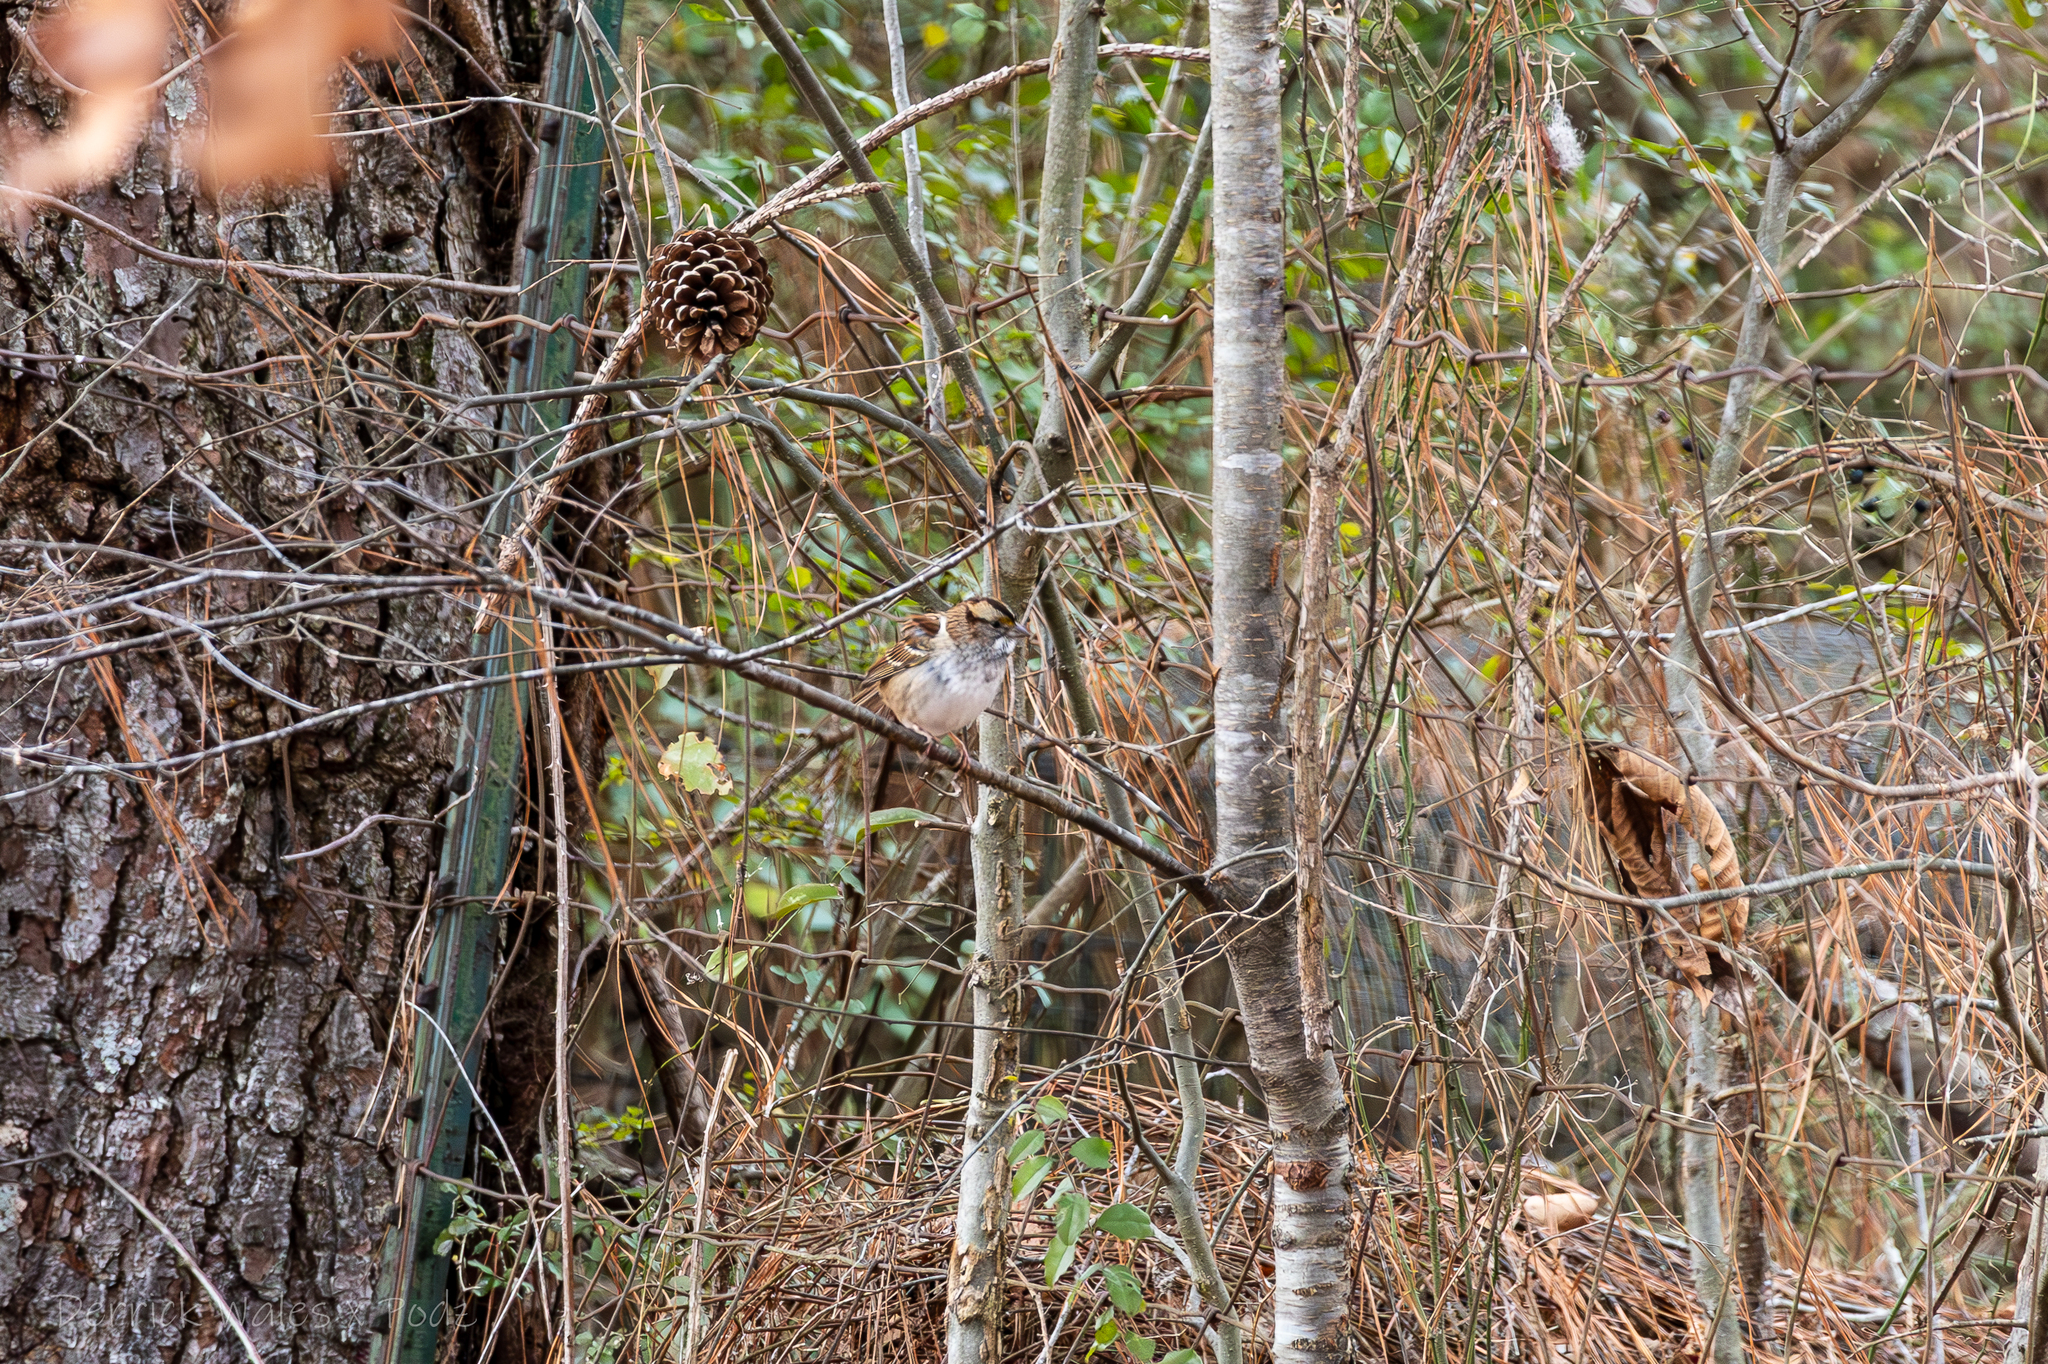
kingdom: Animalia
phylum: Chordata
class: Aves
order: Passeriformes
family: Passerellidae
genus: Zonotrichia
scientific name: Zonotrichia albicollis
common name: White-throated sparrow
